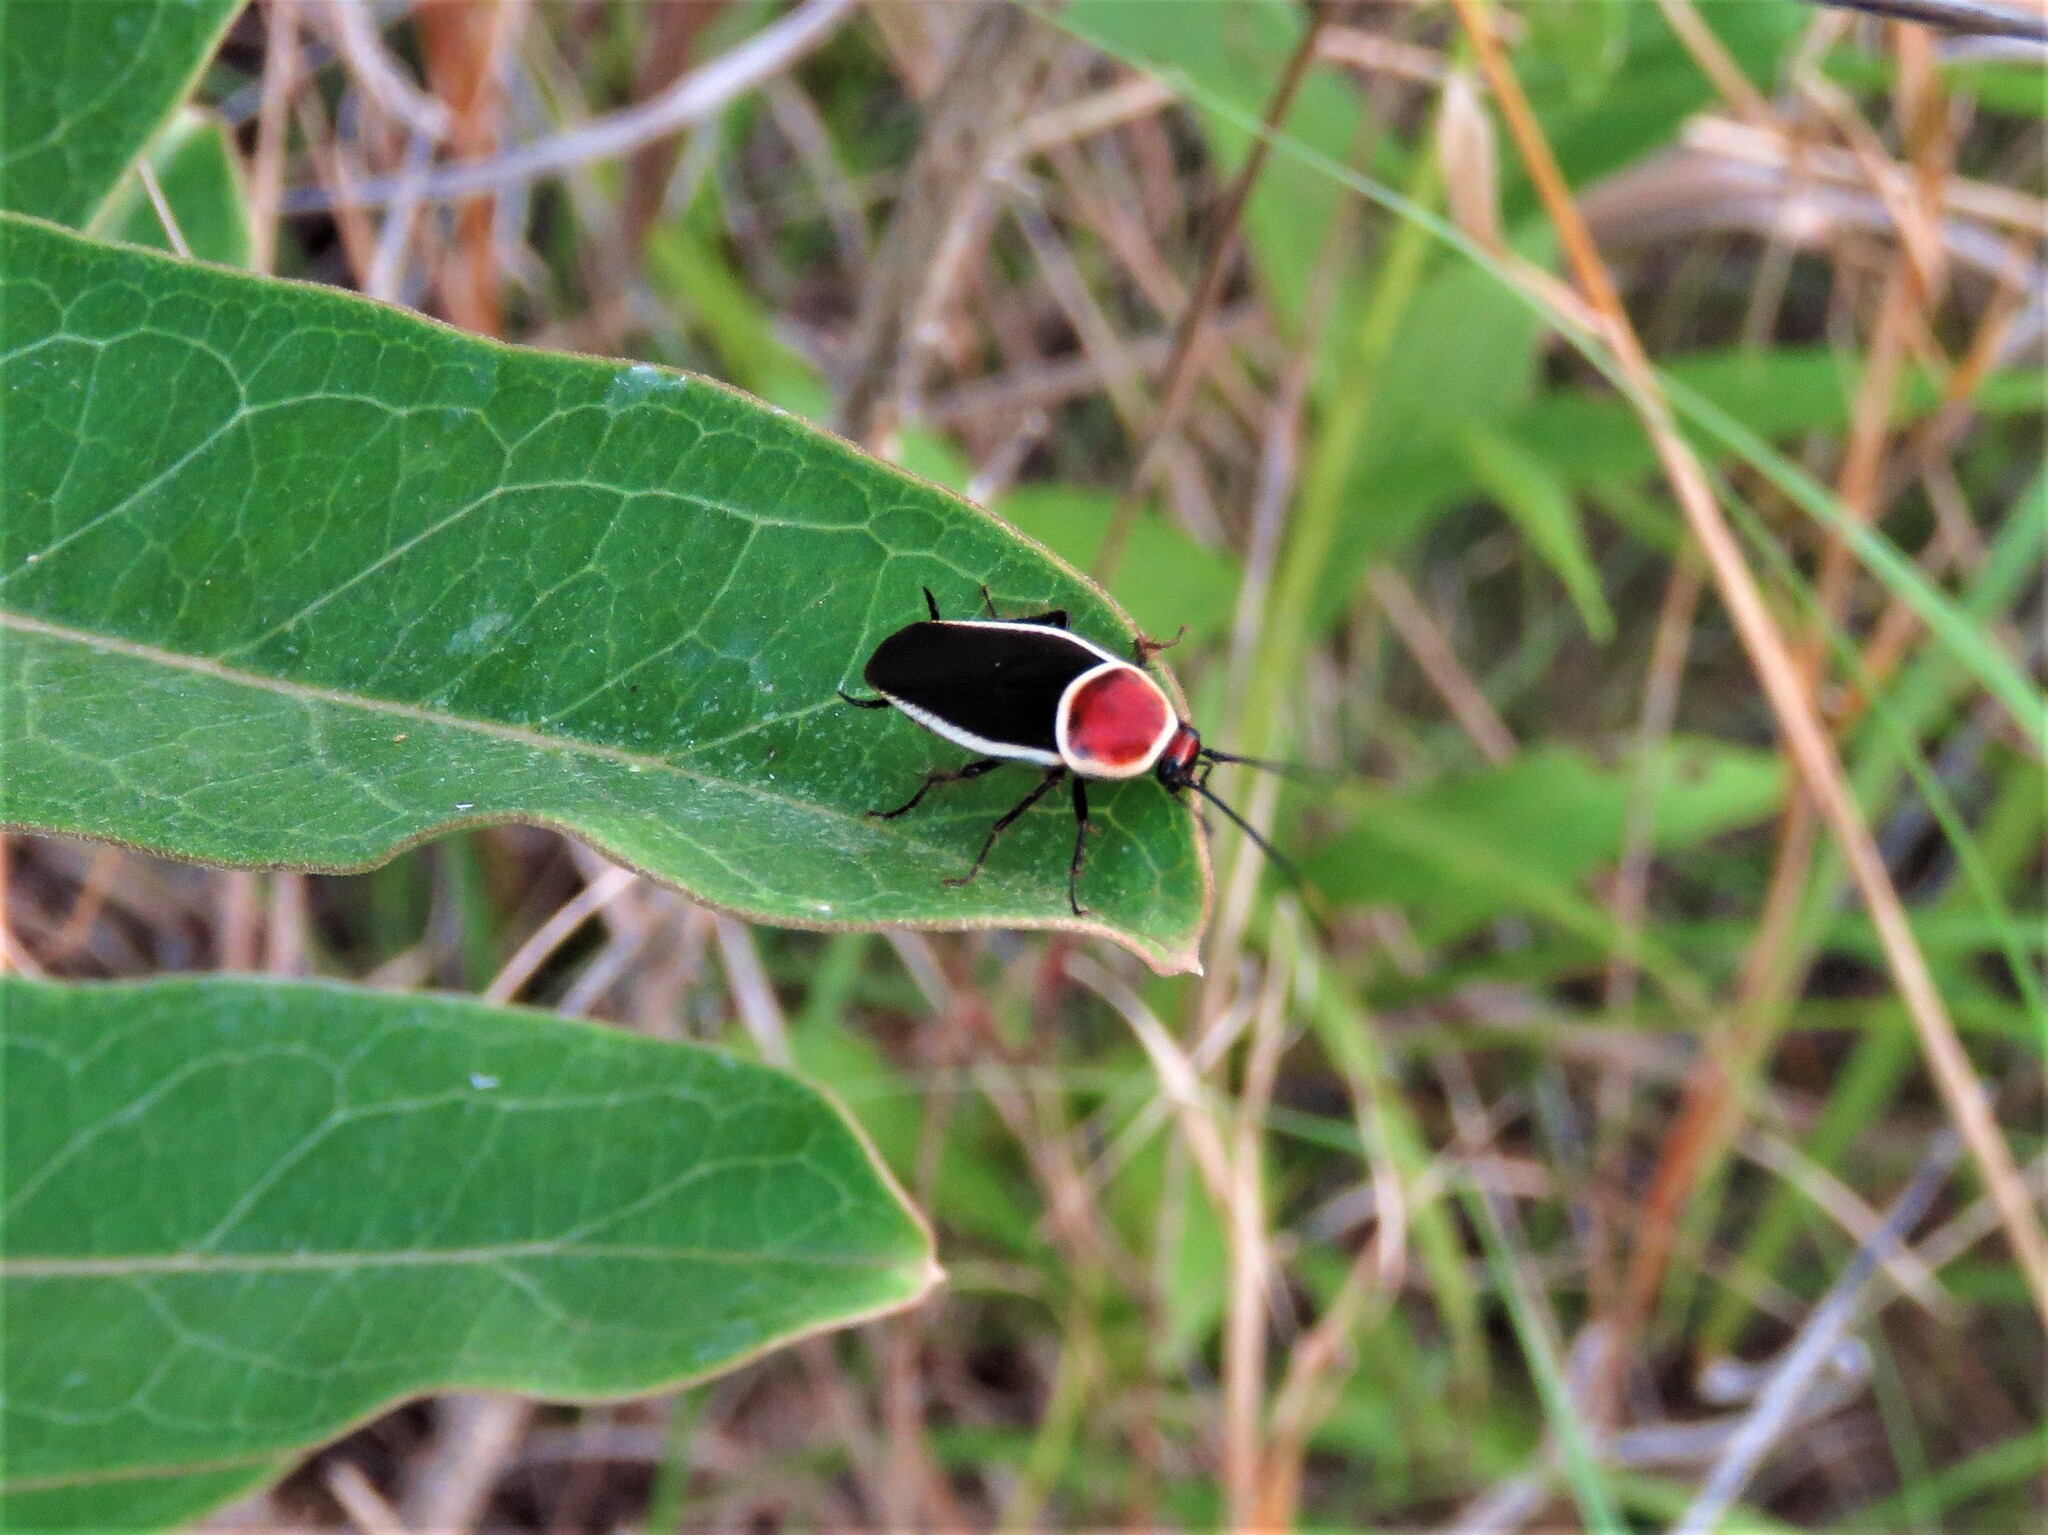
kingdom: Animalia
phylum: Arthropoda
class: Insecta
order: Blattodea
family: Ectobiidae
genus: Pseudomops
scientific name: Pseudomops septentrionalis
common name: Pale-bordered field cockroach
